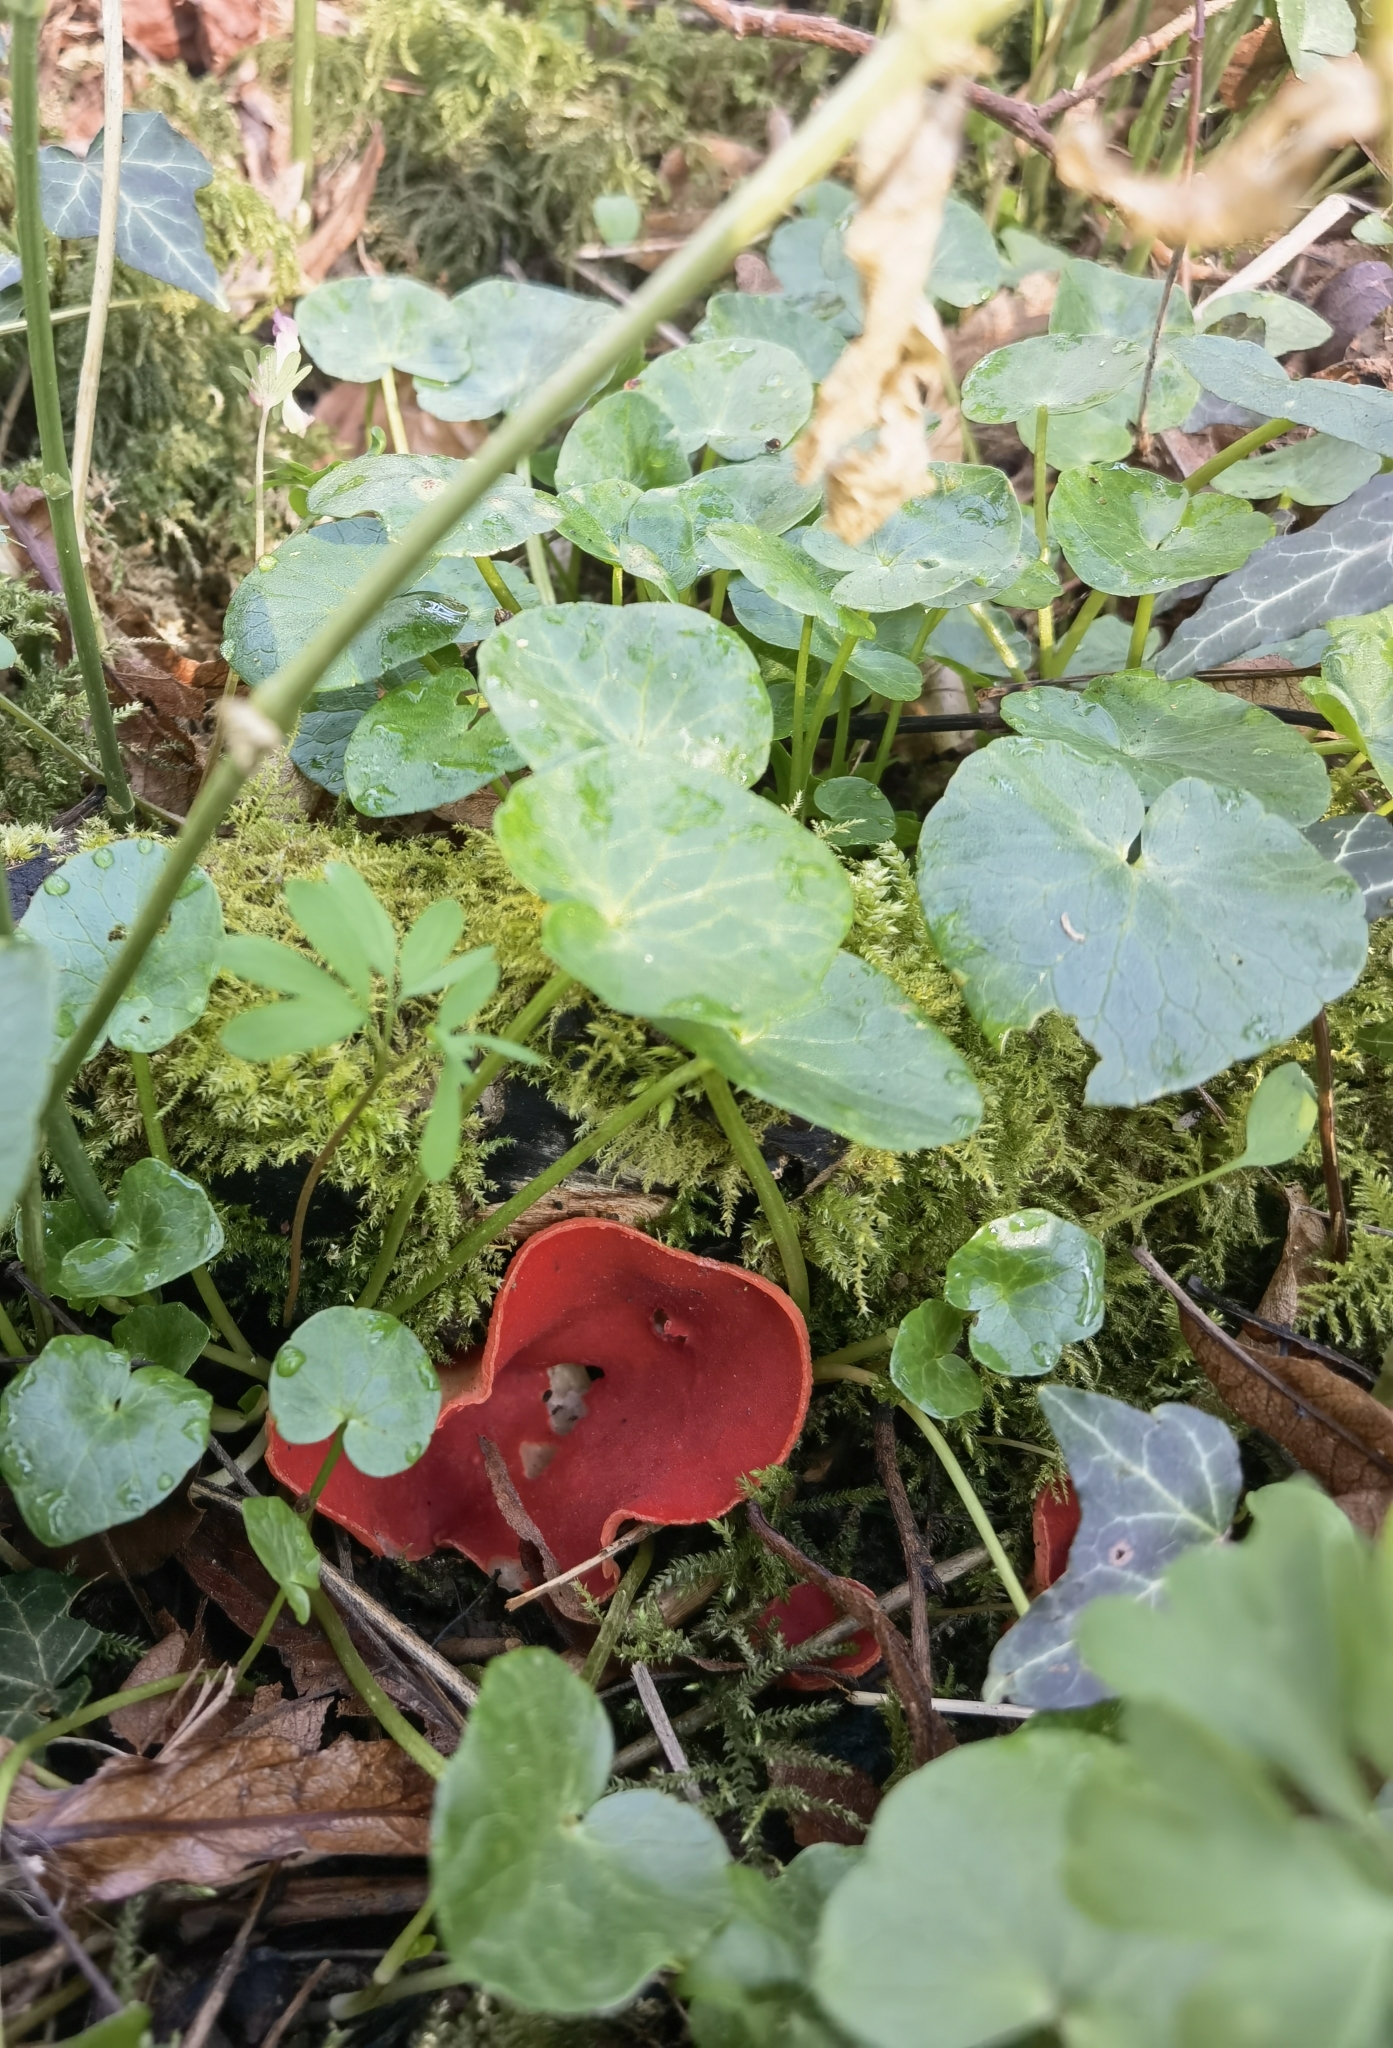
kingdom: Fungi
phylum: Ascomycota
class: Pezizomycetes
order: Pezizales
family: Sarcoscyphaceae
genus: Sarcoscypha
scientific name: Sarcoscypha
